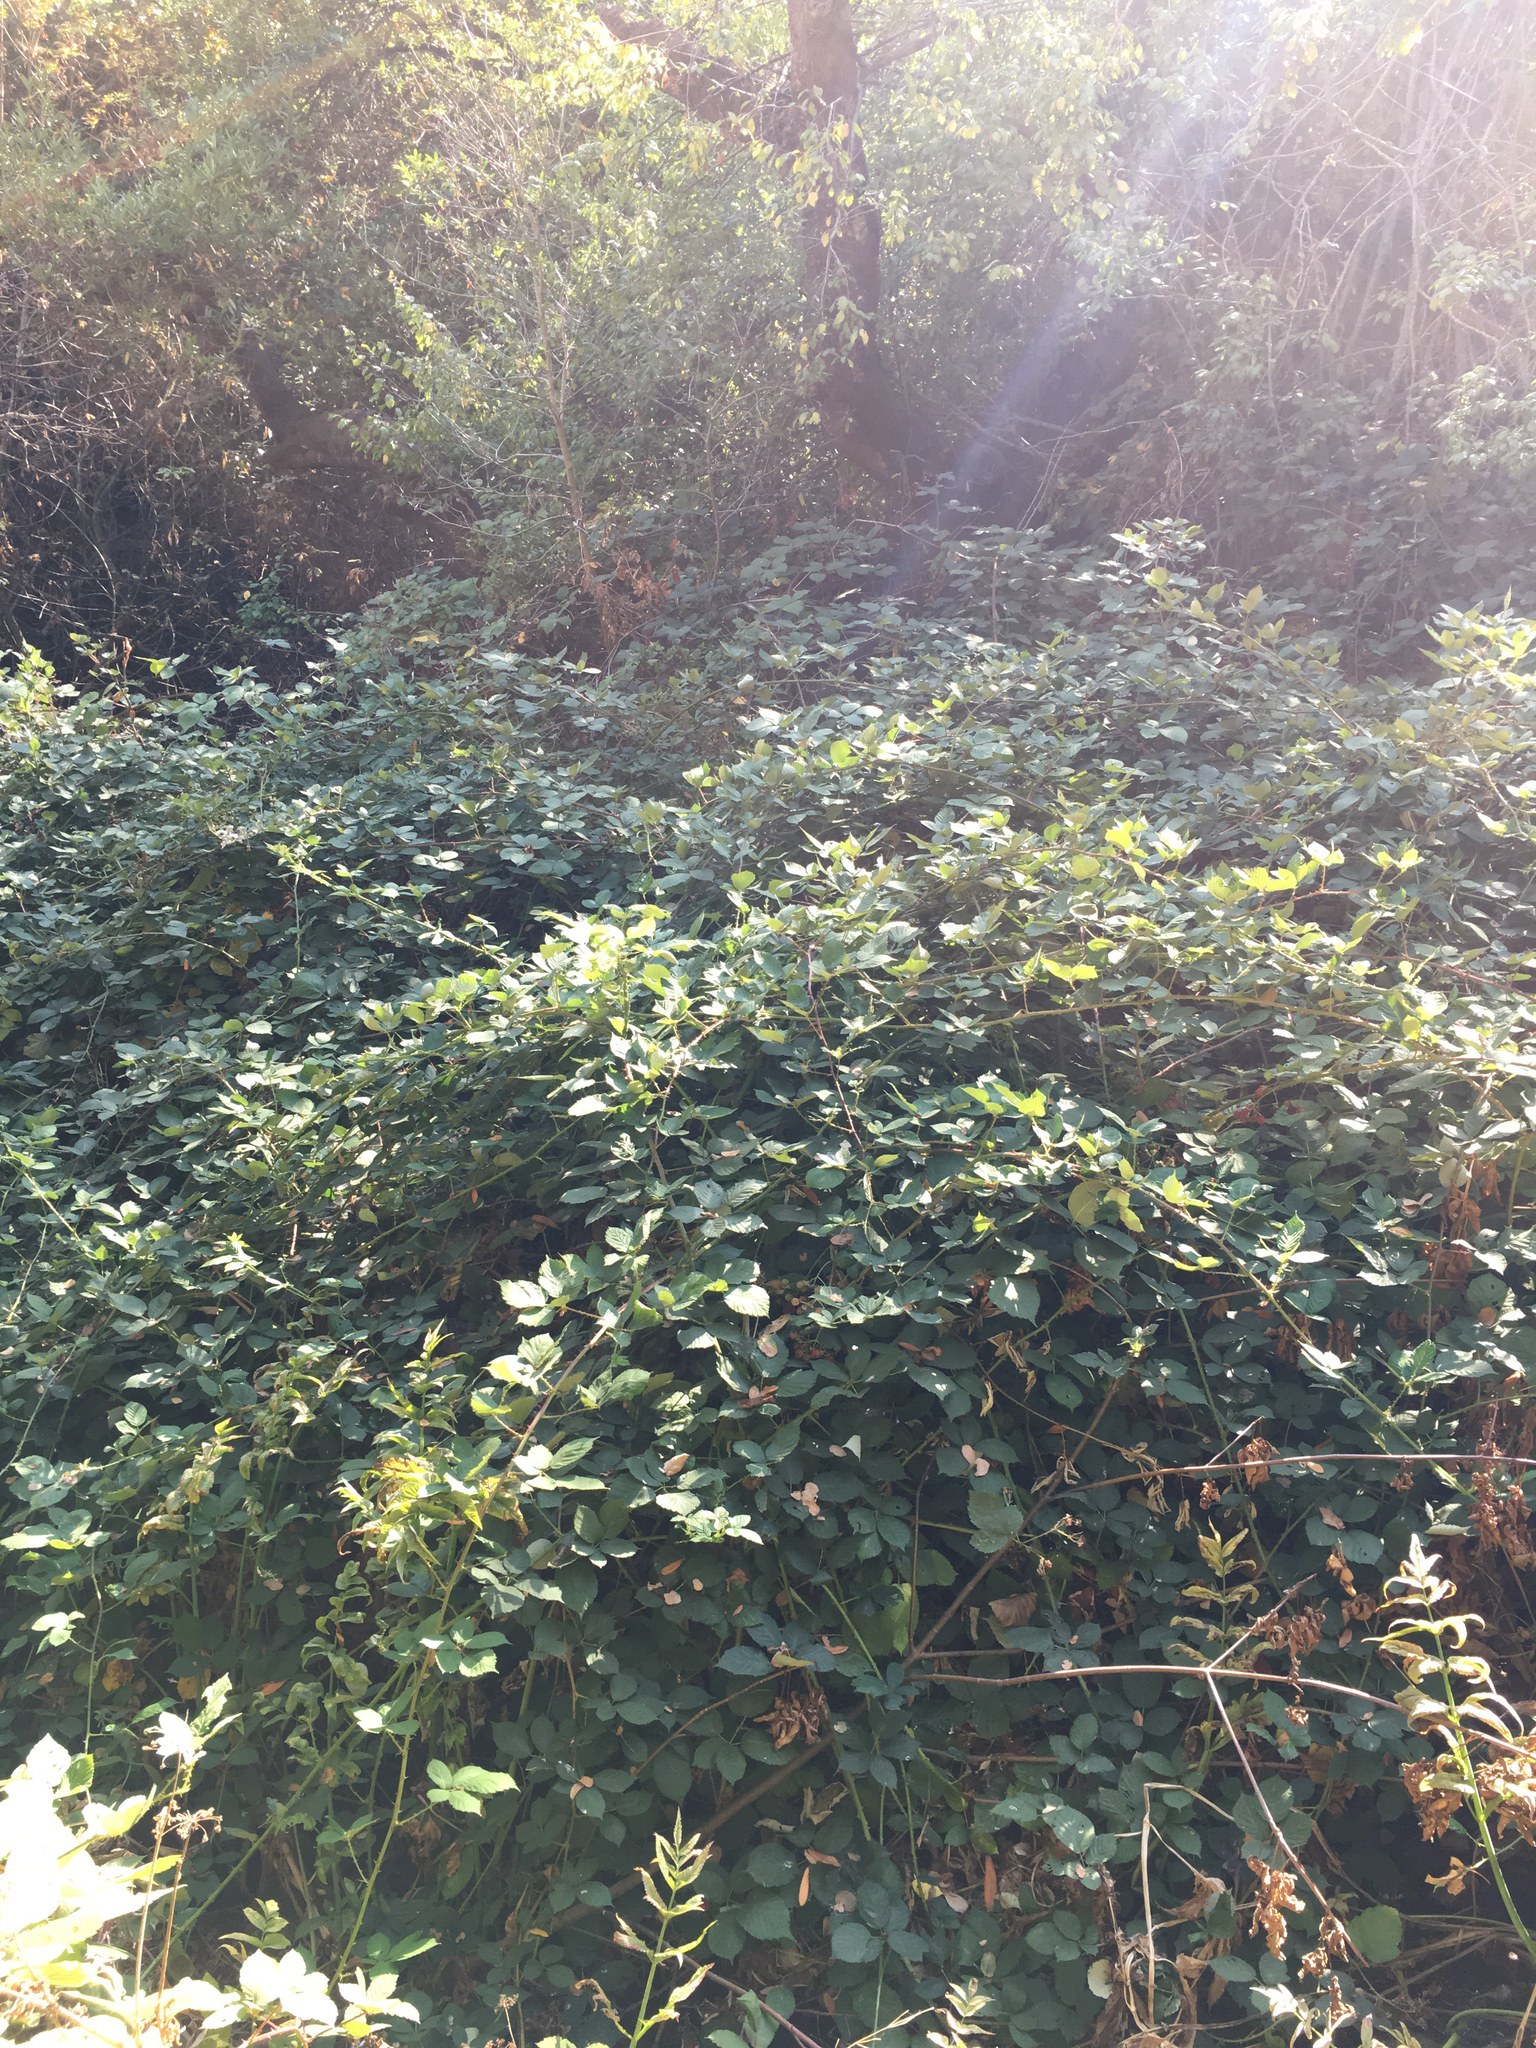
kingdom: Plantae
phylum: Tracheophyta
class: Magnoliopsida
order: Rosales
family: Rosaceae
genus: Rubus
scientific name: Rubus armeniacus
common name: Himalayan blackberry
